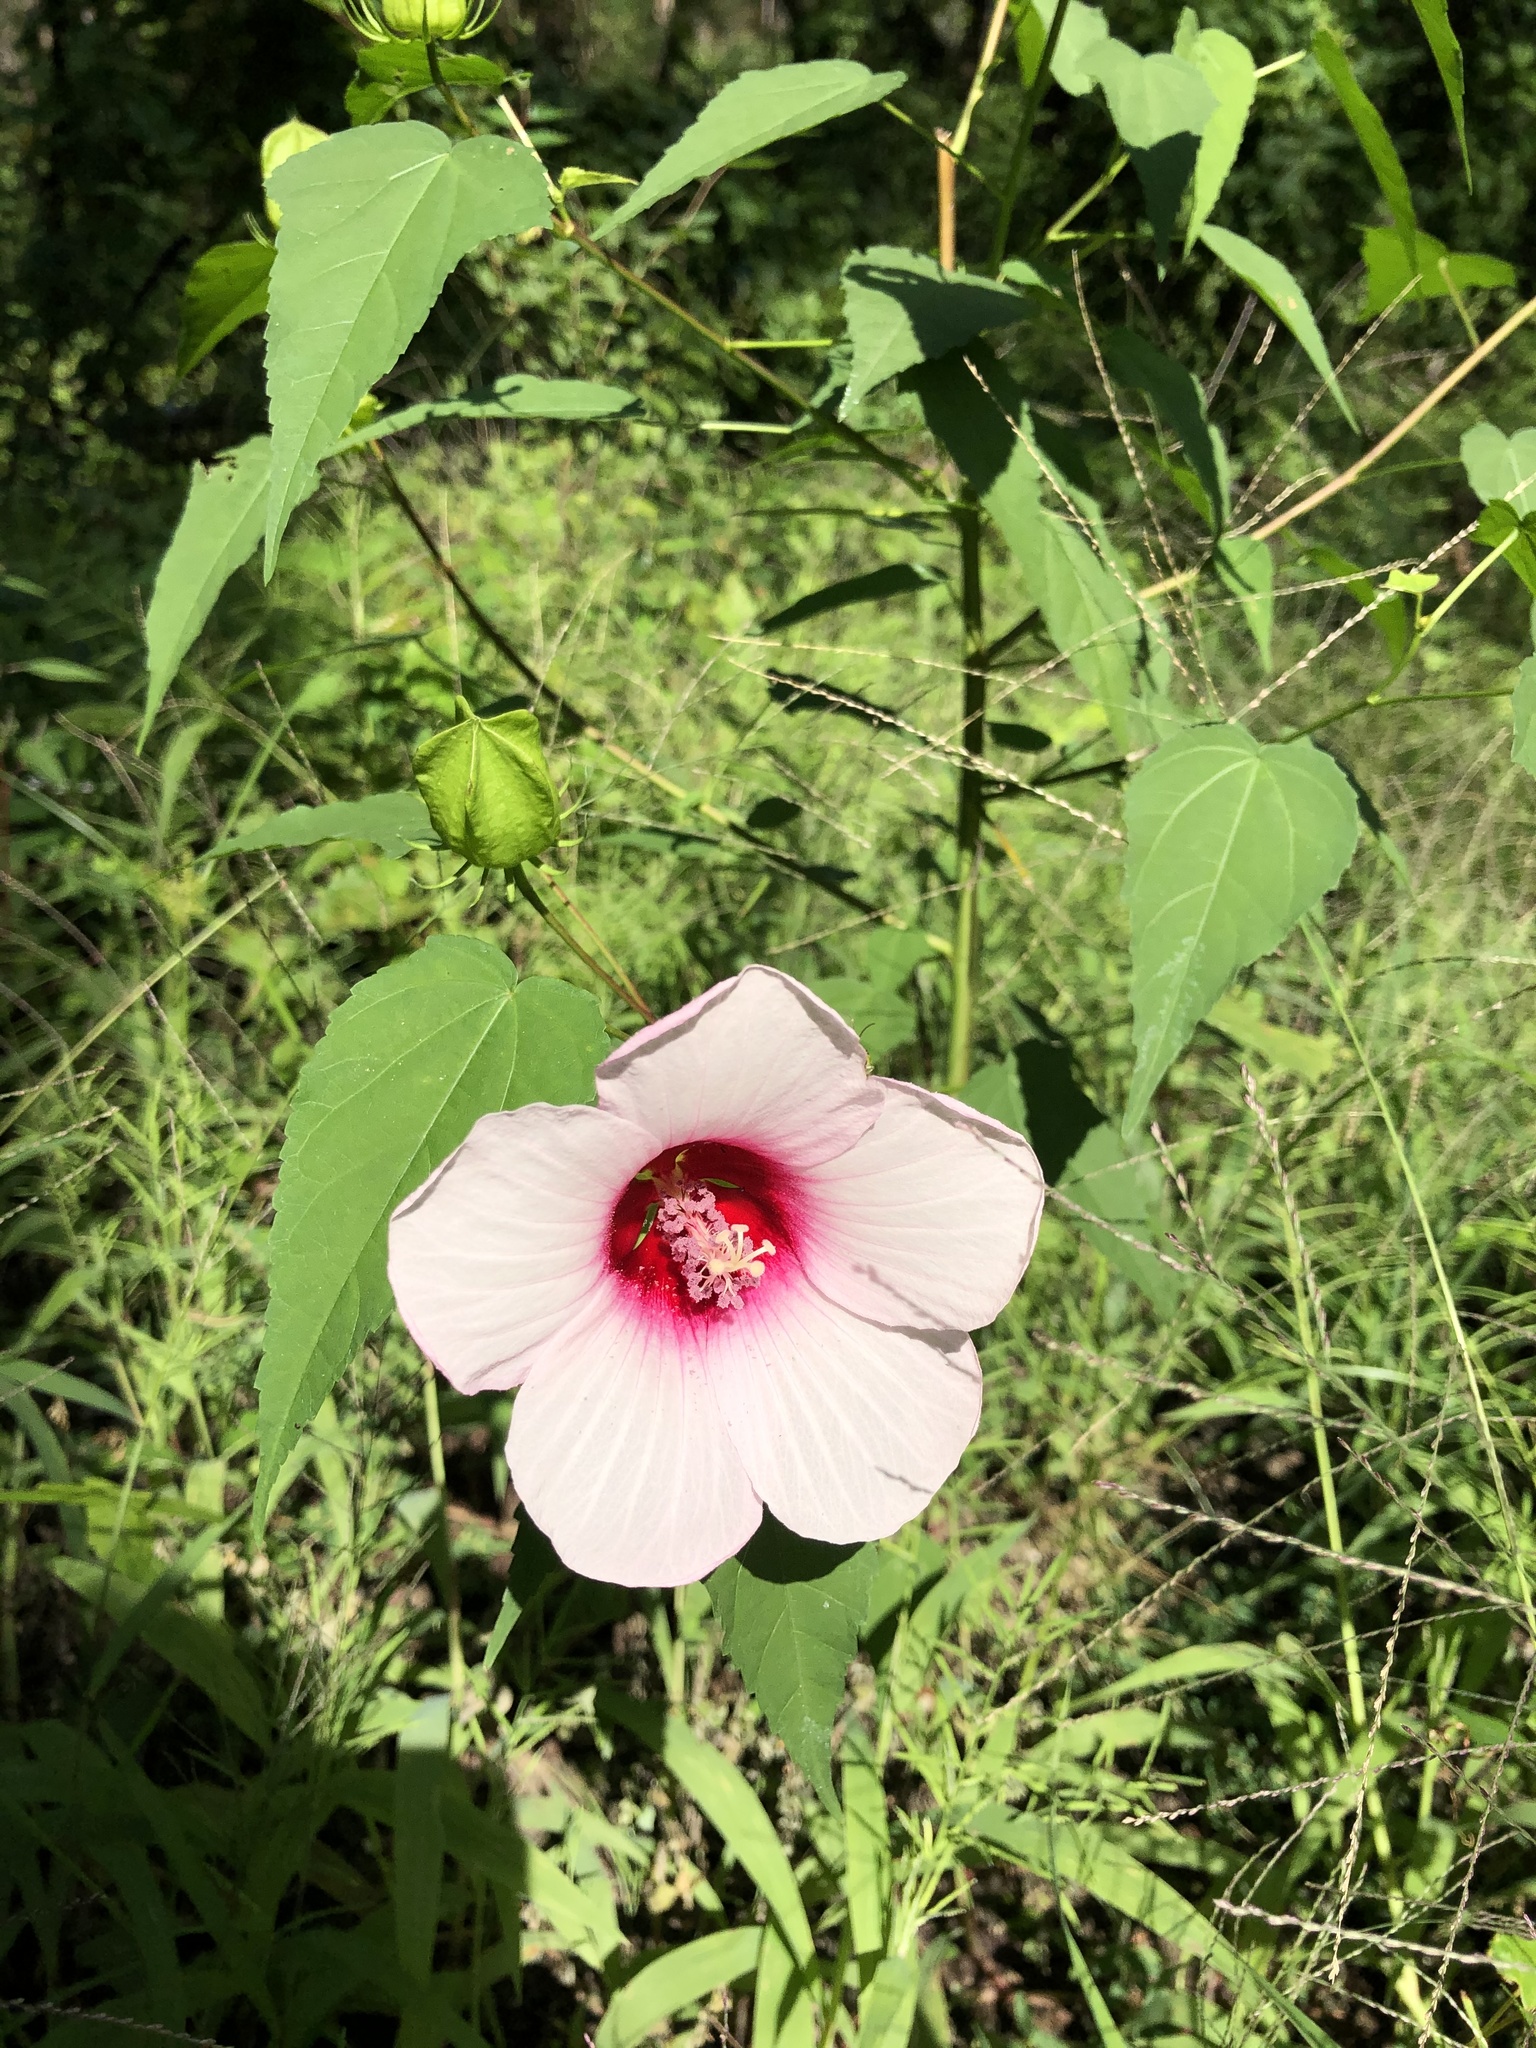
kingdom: Plantae
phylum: Tracheophyta
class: Magnoliopsida
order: Malvales
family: Malvaceae
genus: Hibiscus
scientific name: Hibiscus laevis
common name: Scarlet rose-mallow
